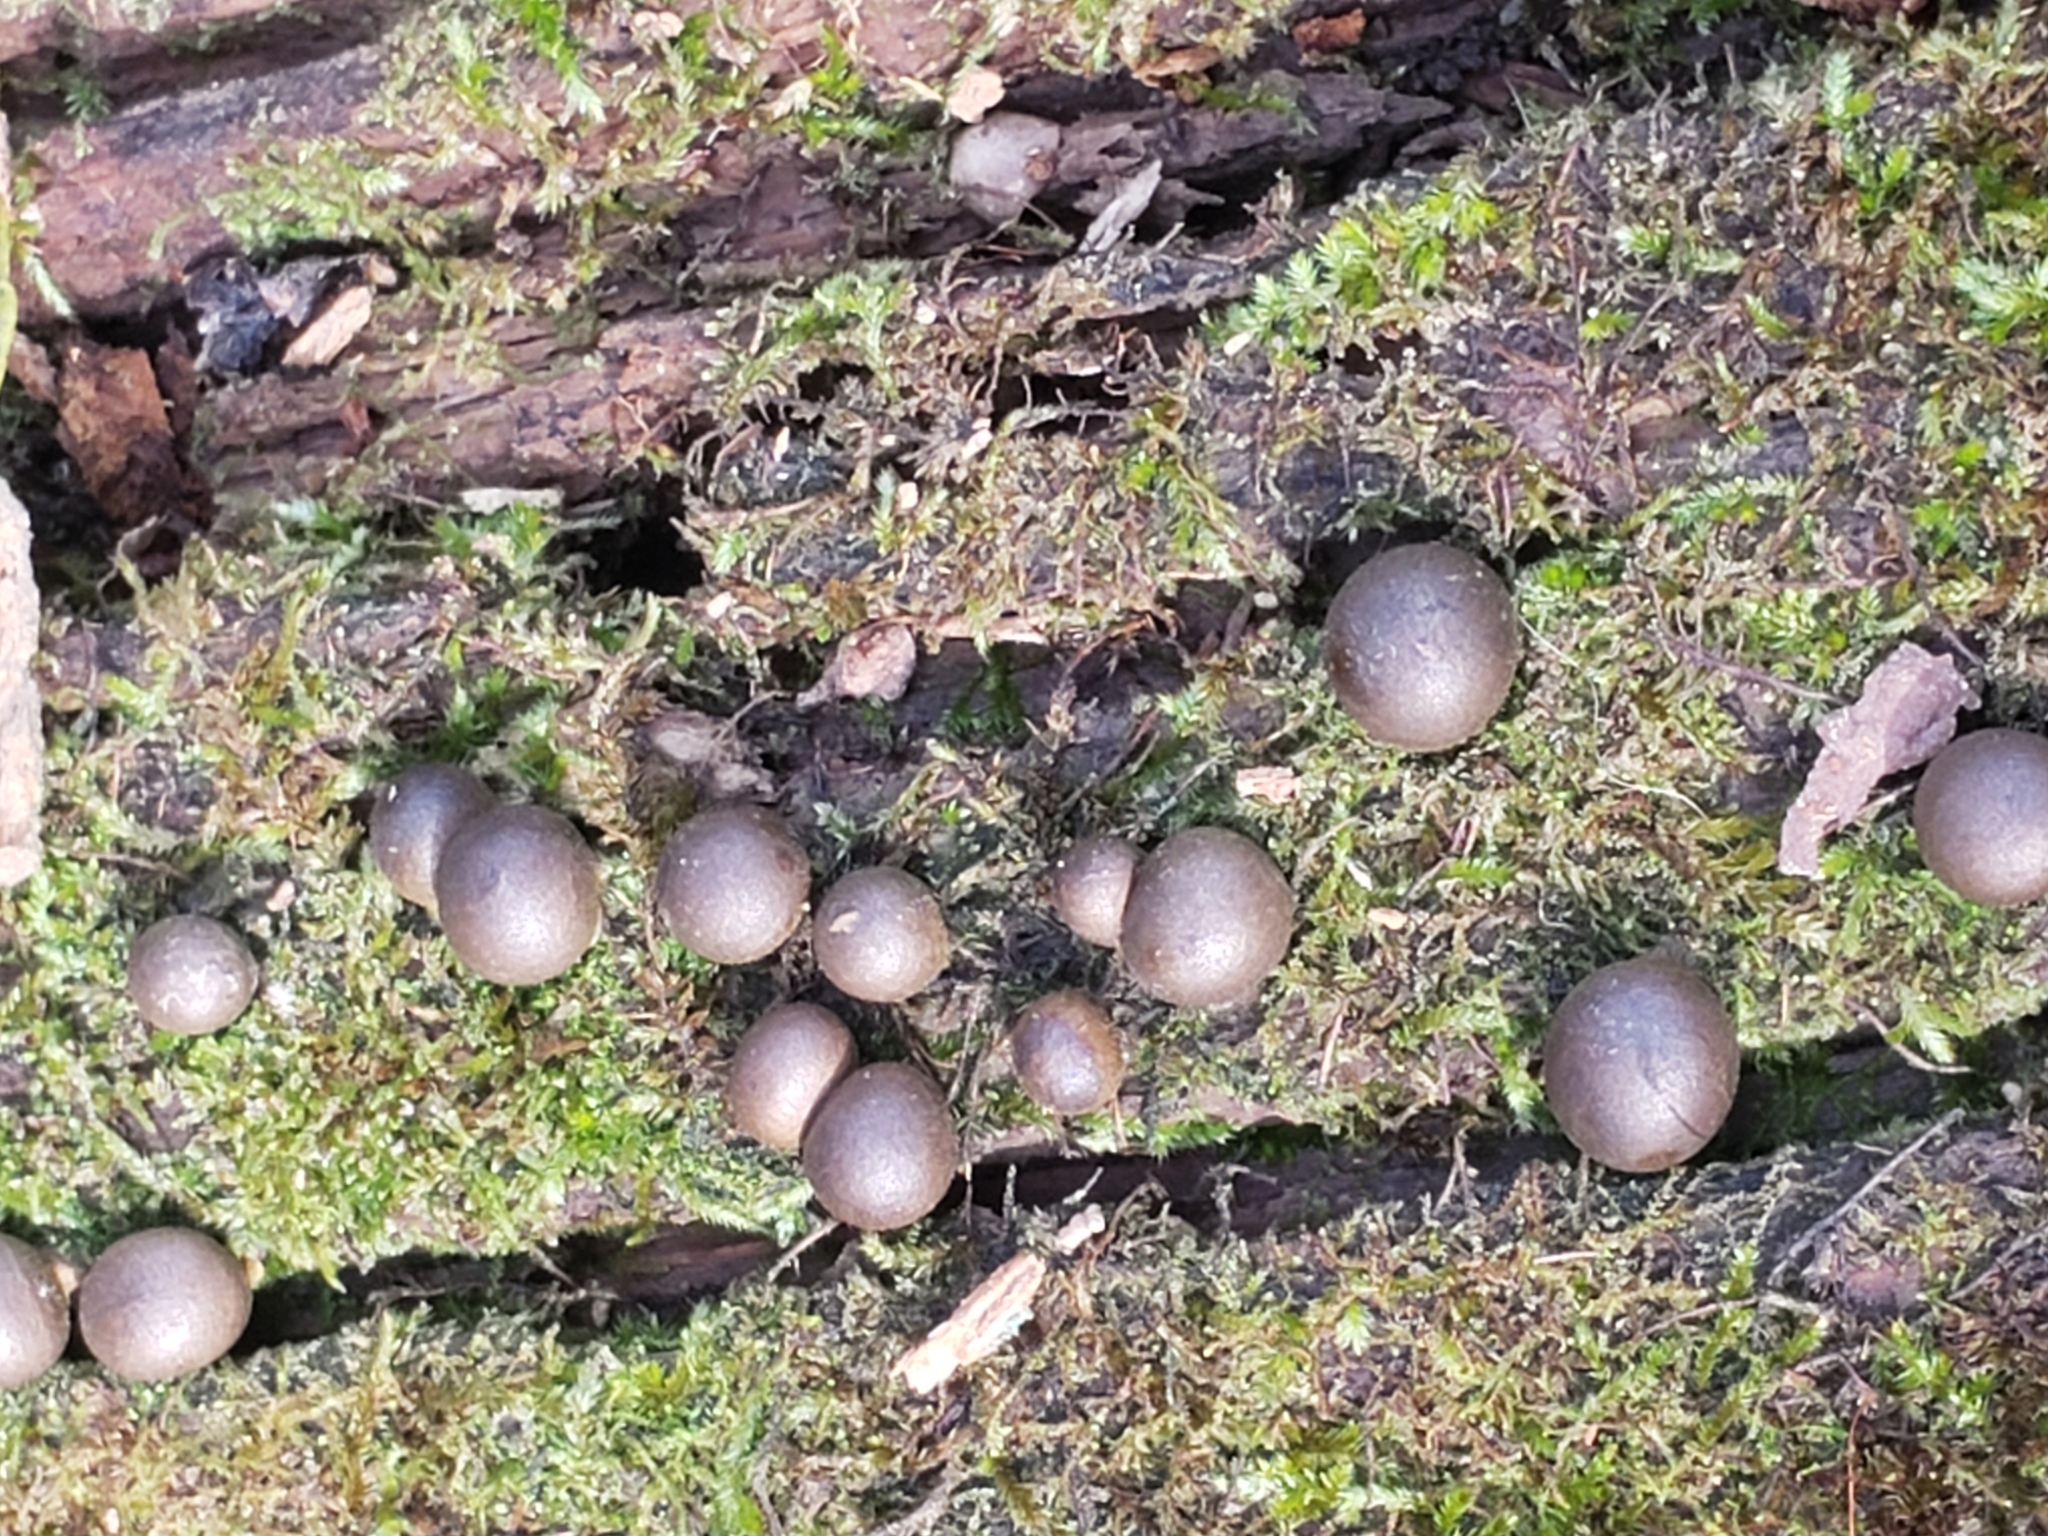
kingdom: Protozoa
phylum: Mycetozoa
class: Myxomycetes
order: Cribrariales
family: Tubiferaceae
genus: Lycogala
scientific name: Lycogala epidendrum
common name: Wolf's milk
